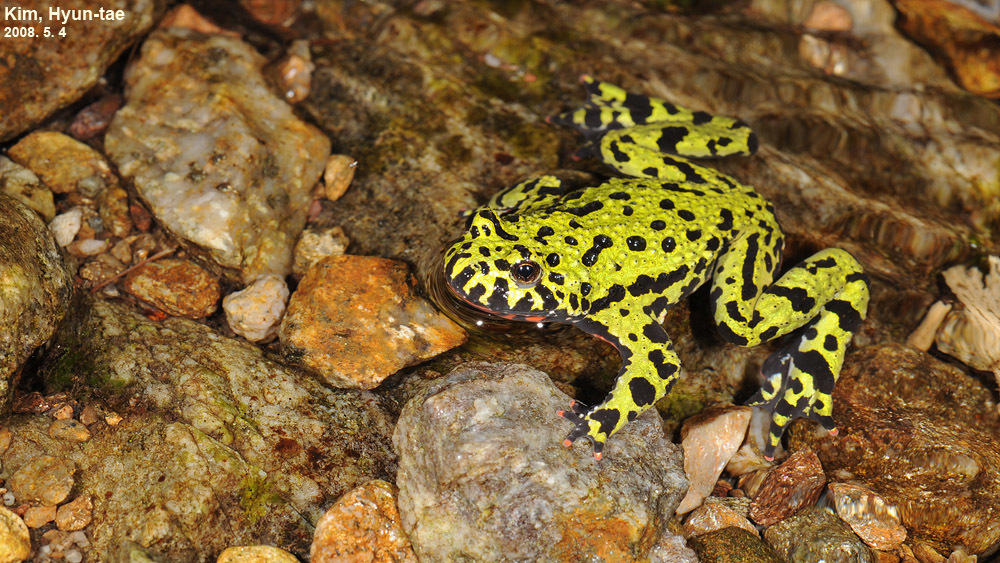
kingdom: Animalia
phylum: Chordata
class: Amphibia
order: Anura
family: Bombinatoridae
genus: Bombina
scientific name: Bombina orientalis
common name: Oriental firebelly toad
